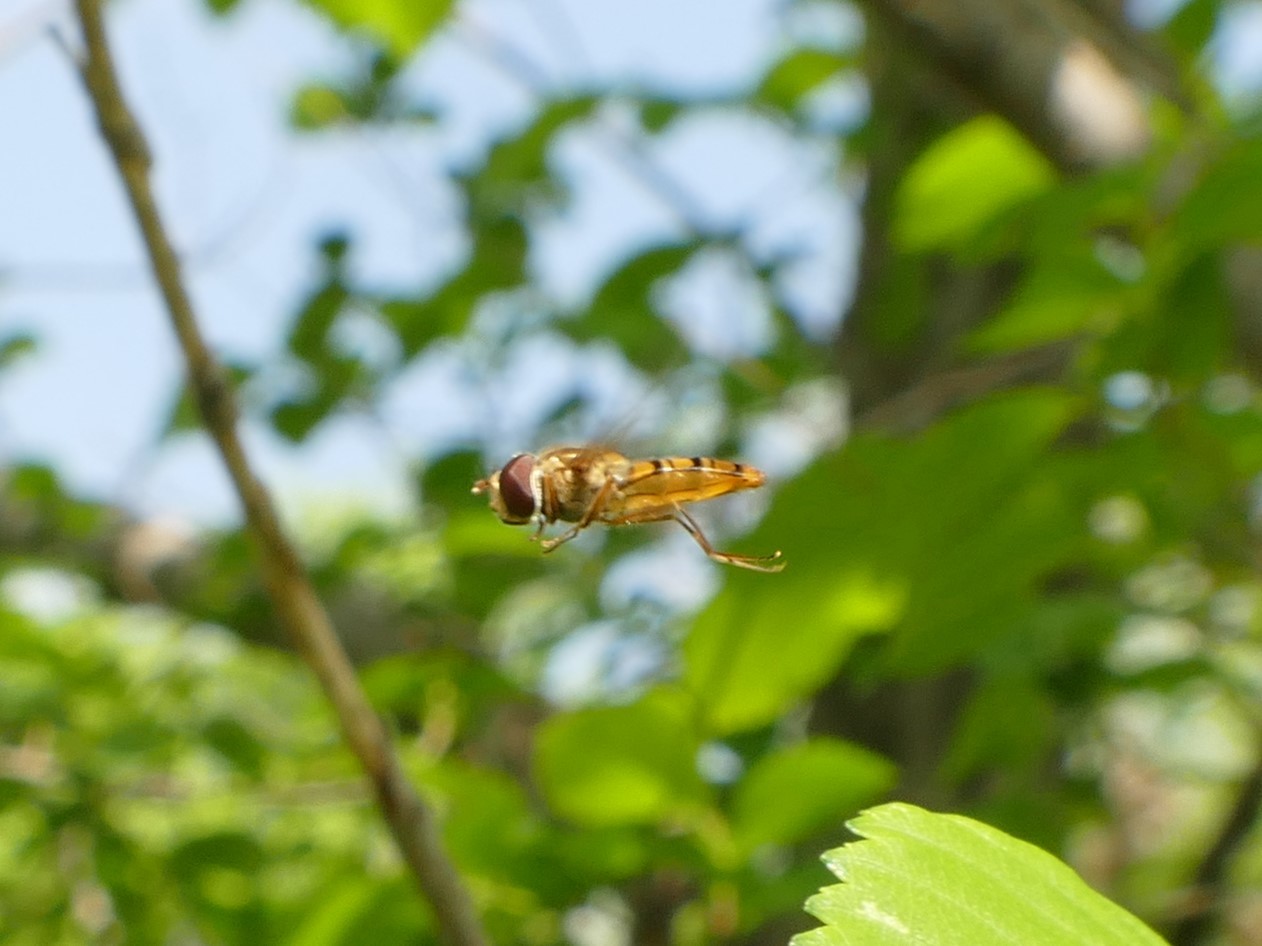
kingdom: Animalia
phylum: Arthropoda
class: Insecta
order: Diptera
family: Syrphidae
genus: Episyrphus
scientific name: Episyrphus balteatus
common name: Marmalade hoverfly
